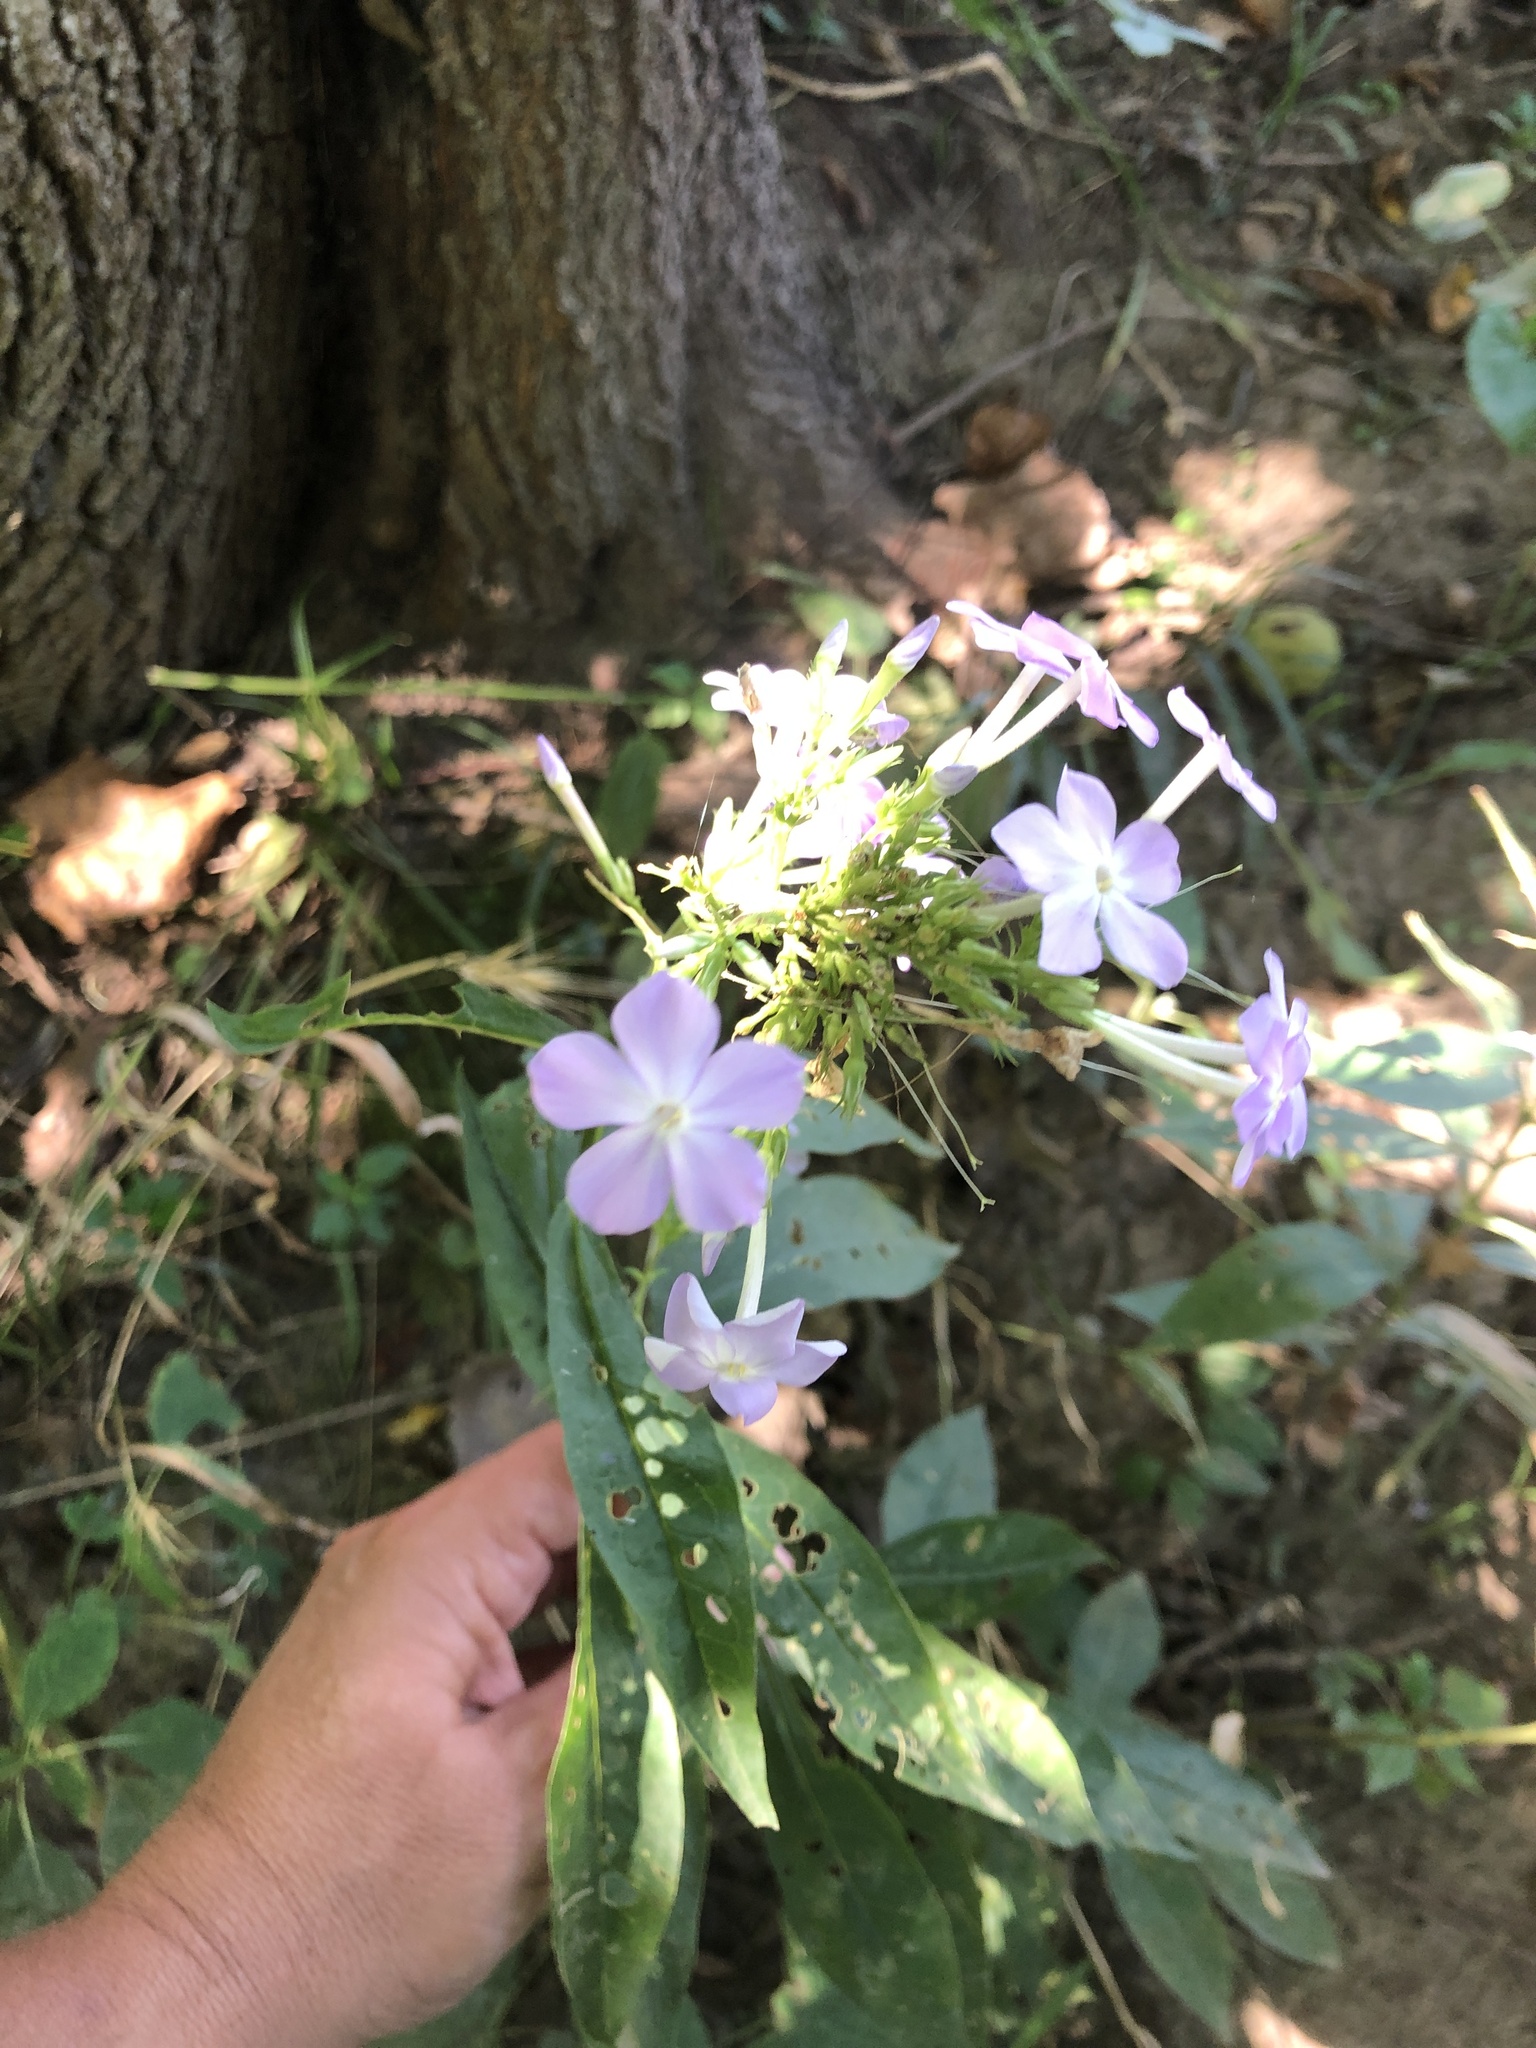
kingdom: Plantae
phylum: Tracheophyta
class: Magnoliopsida
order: Ericales
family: Polemoniaceae
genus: Phlox
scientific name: Phlox paniculata
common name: Fall phlox
